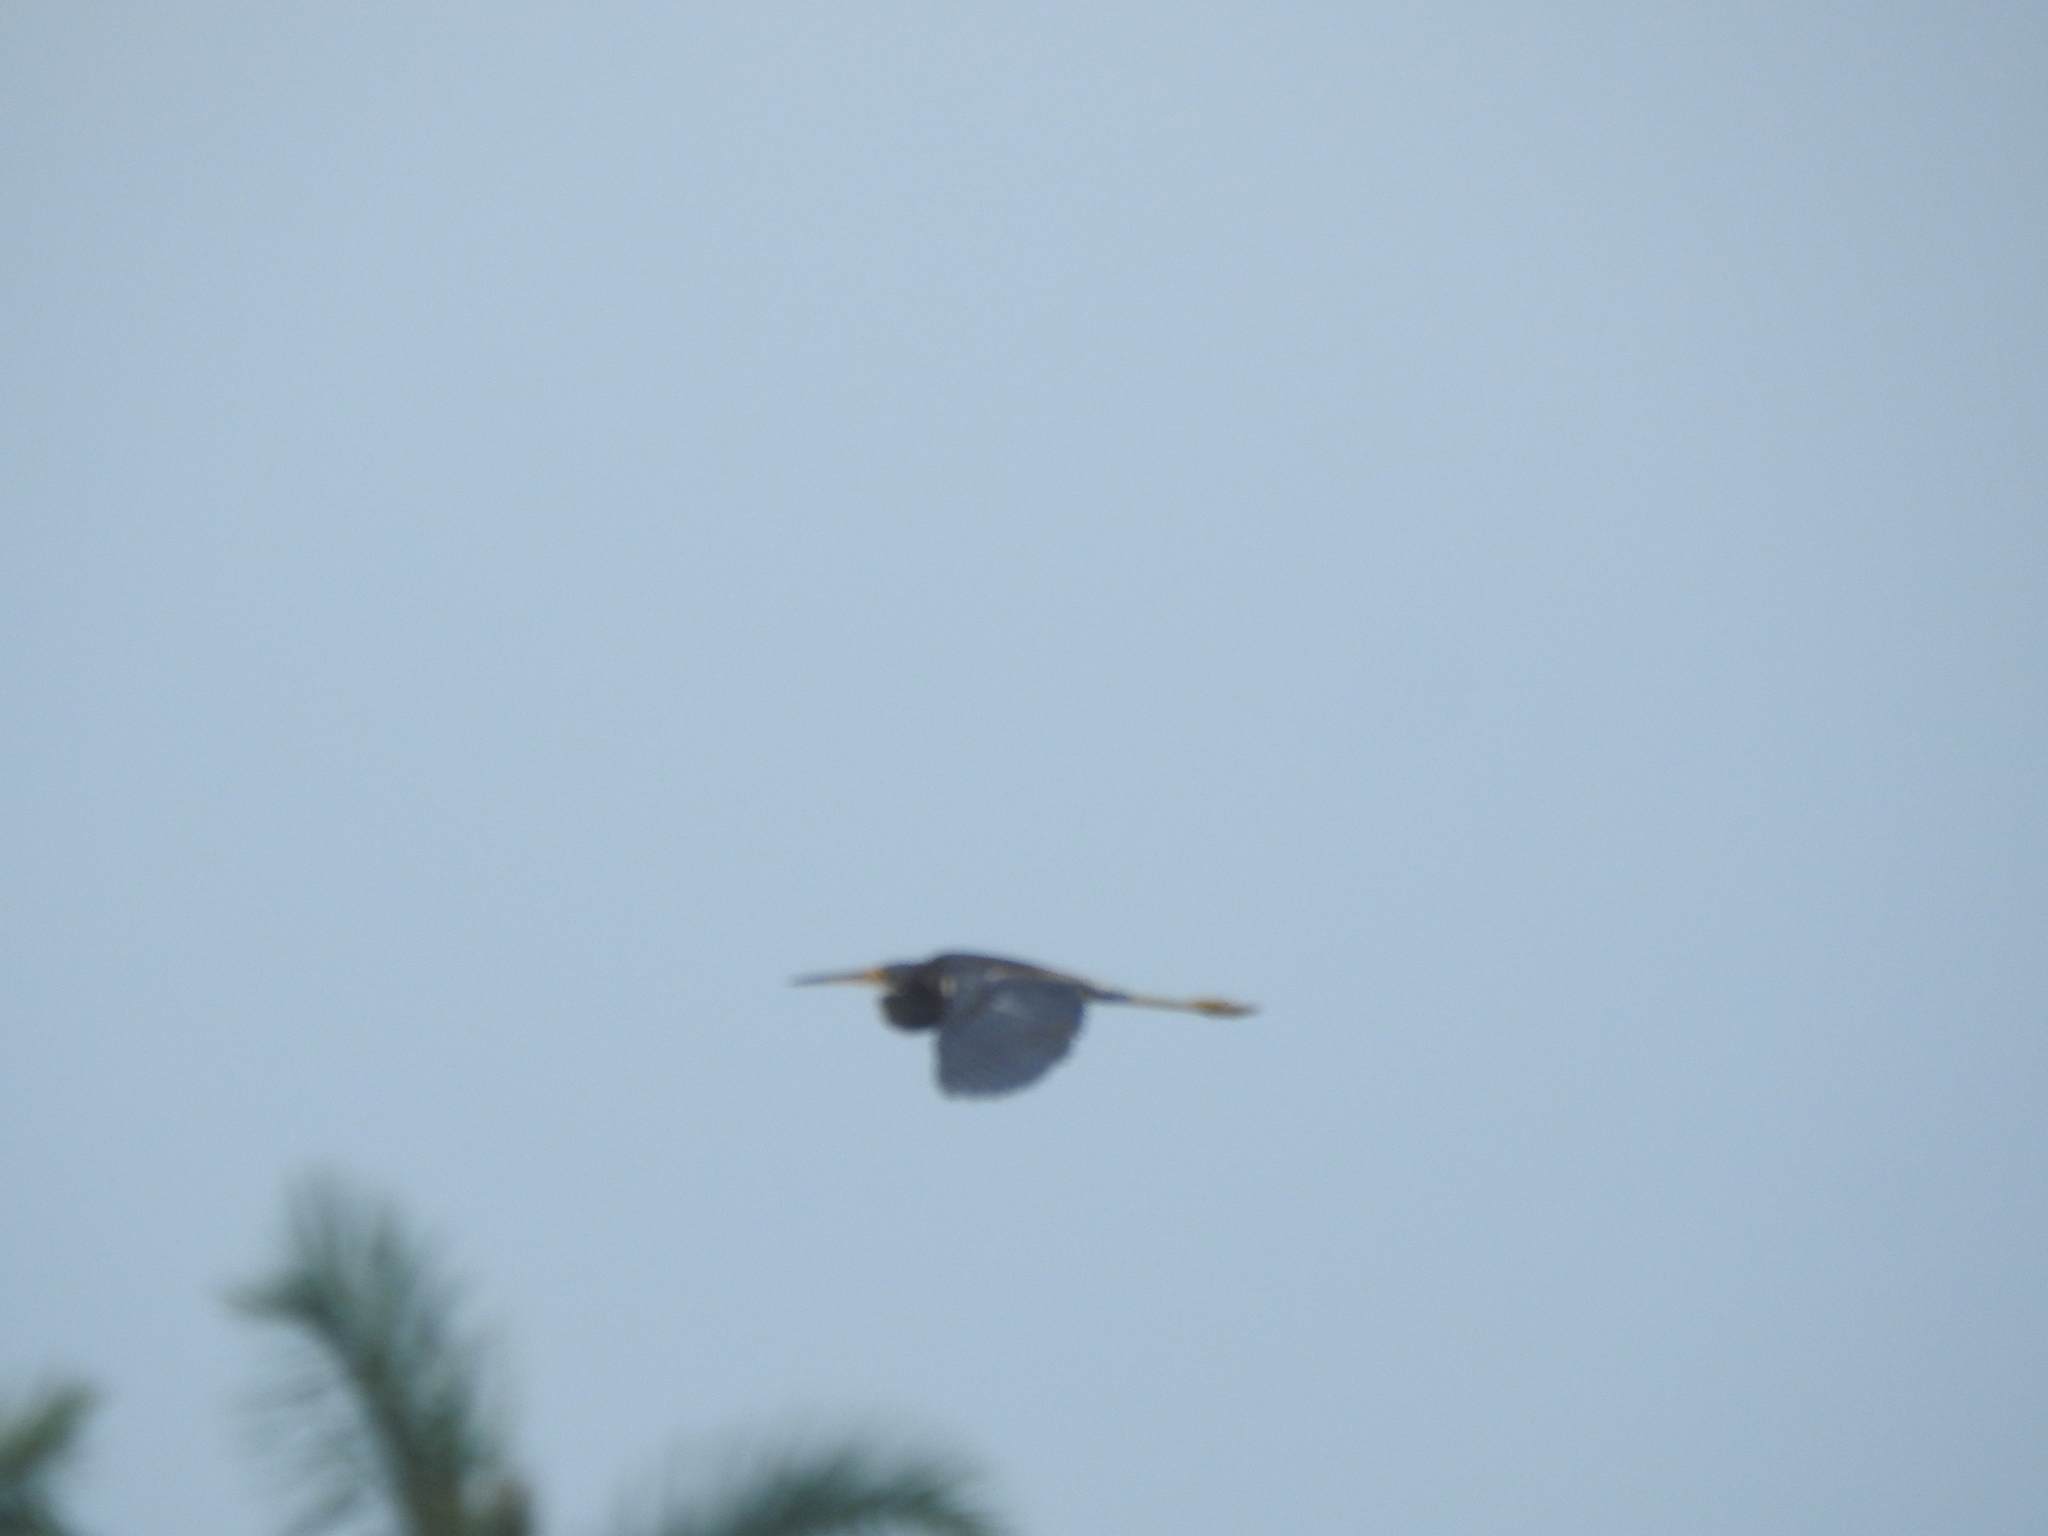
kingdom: Animalia
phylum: Chordata
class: Aves
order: Pelecaniformes
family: Ardeidae
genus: Egretta
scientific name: Egretta tricolor
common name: Tricolored heron
